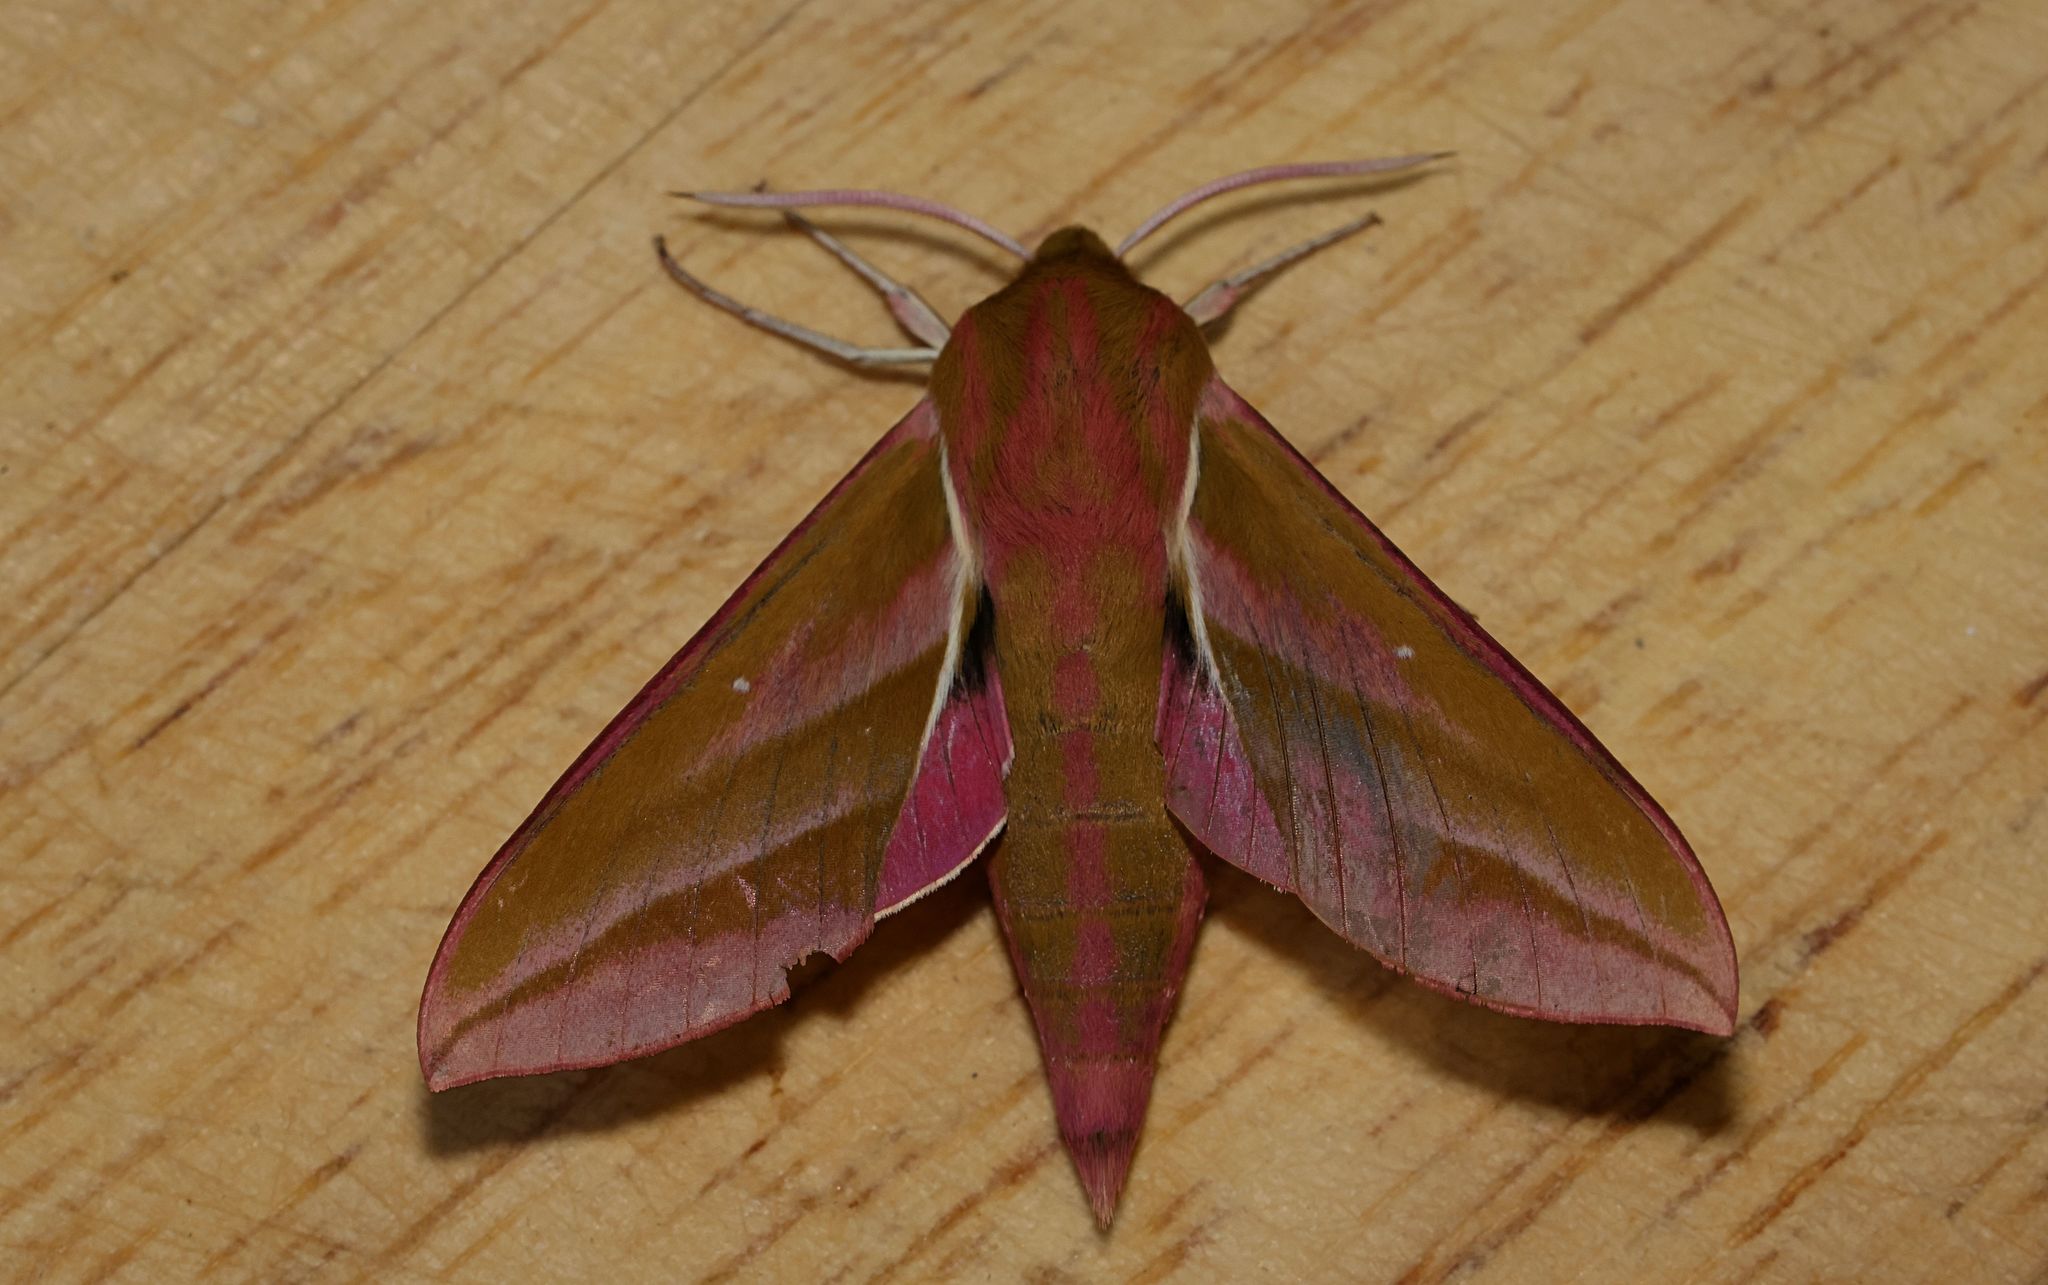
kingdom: Animalia
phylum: Arthropoda
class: Insecta
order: Lepidoptera
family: Sphingidae
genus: Deilephila
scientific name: Deilephila elpenor
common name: Elephant hawk-moth
